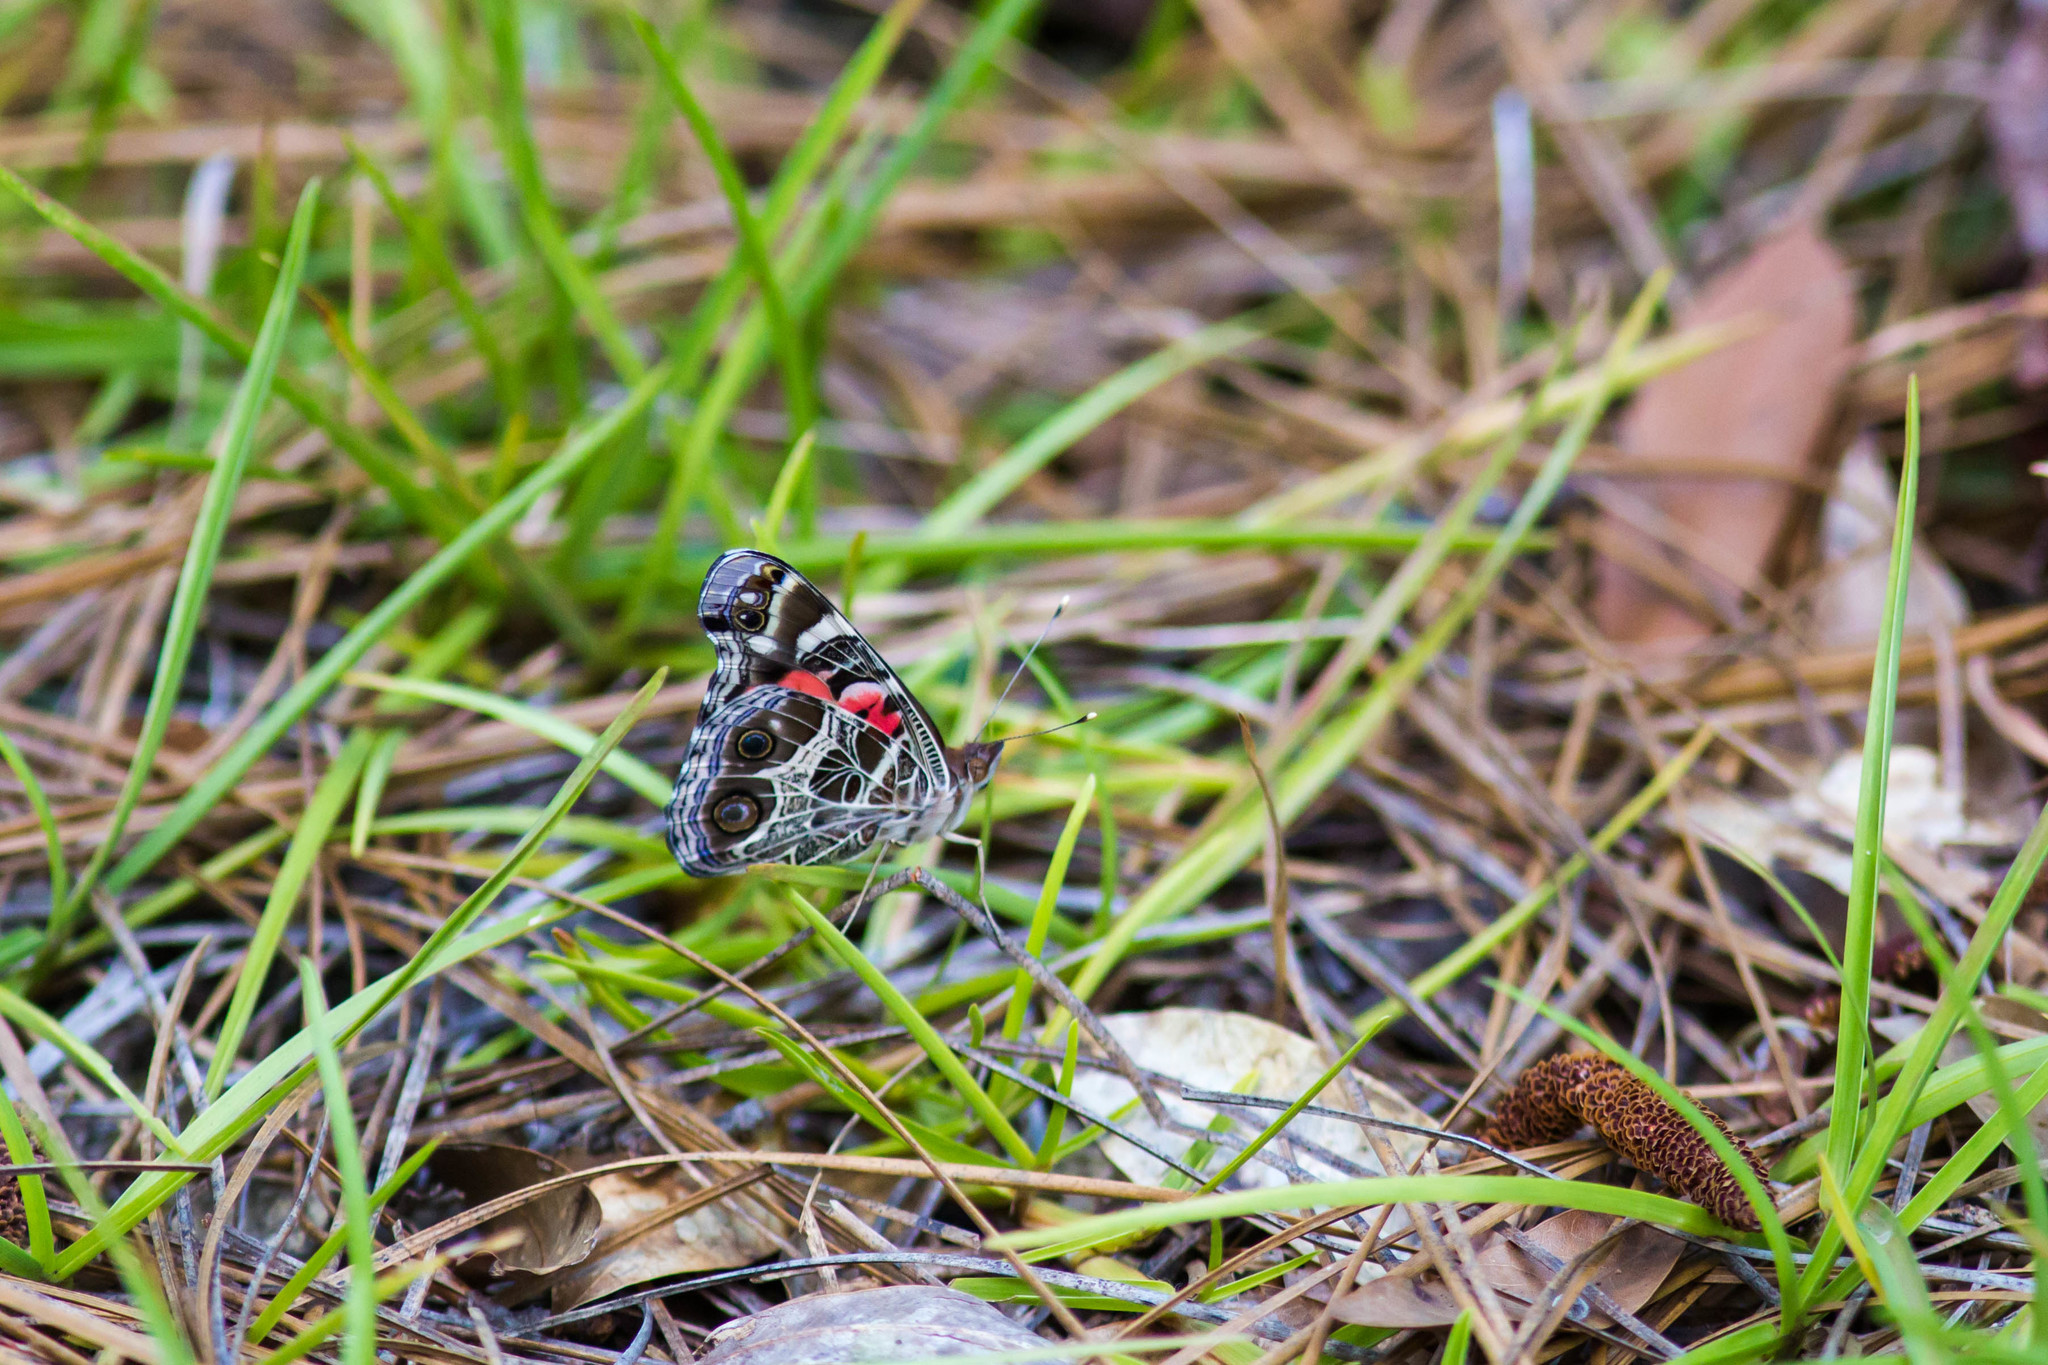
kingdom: Animalia
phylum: Arthropoda
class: Insecta
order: Lepidoptera
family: Nymphalidae
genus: Vanessa
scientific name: Vanessa virginiensis
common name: American lady
